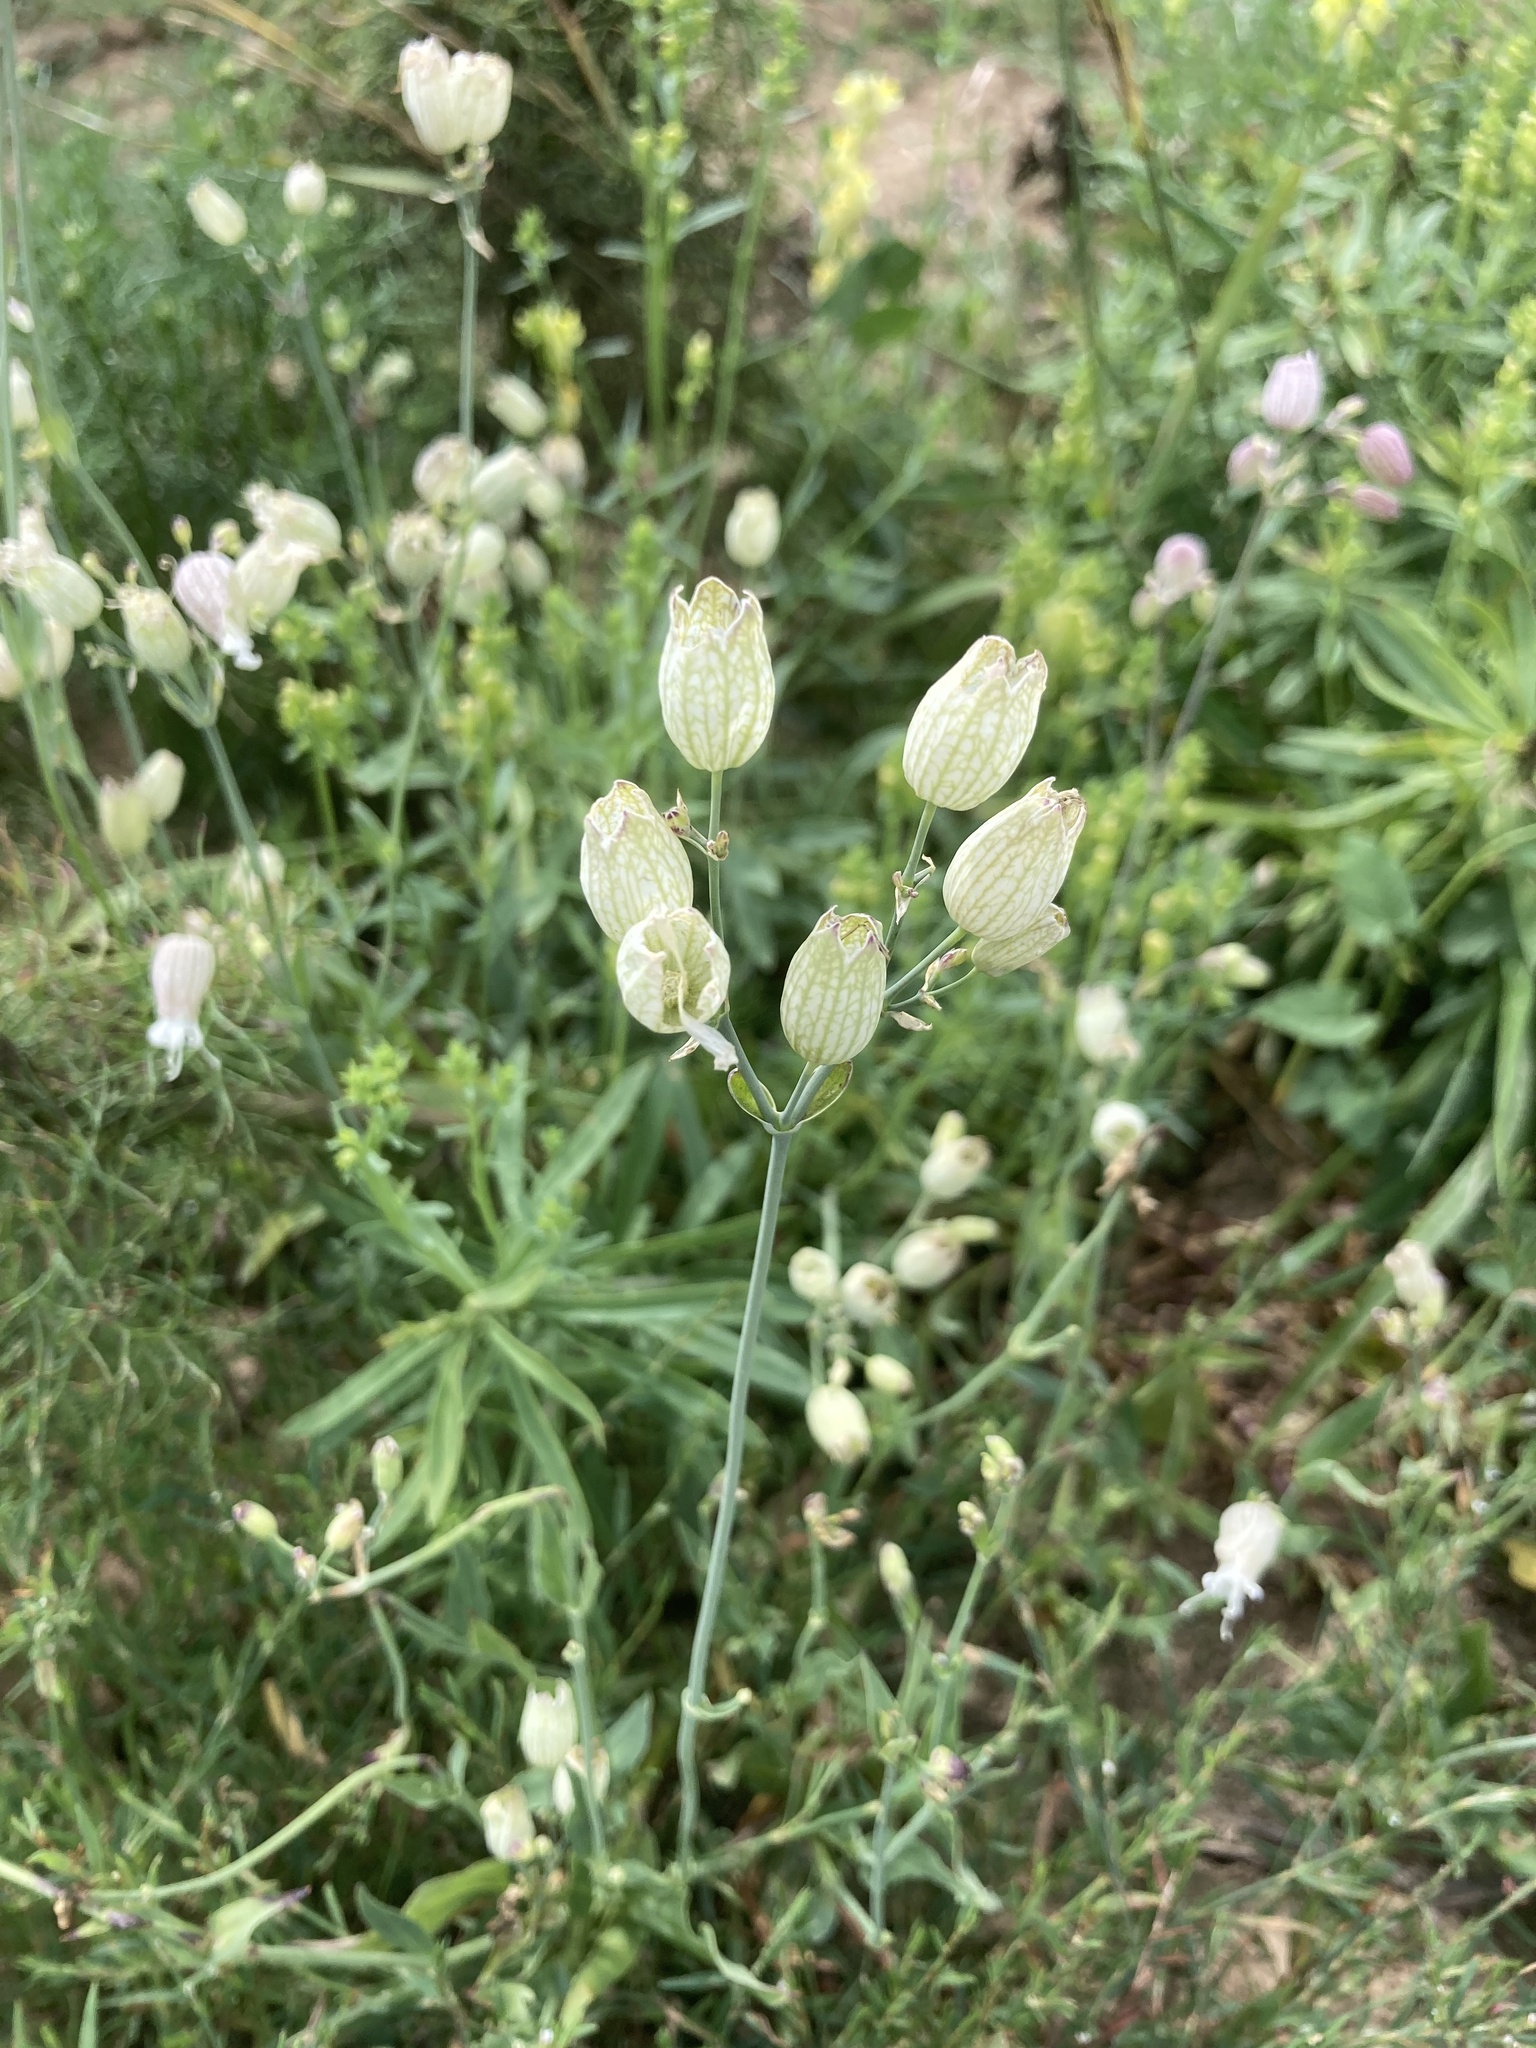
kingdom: Plantae
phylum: Tracheophyta
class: Magnoliopsida
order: Caryophyllales
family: Caryophyllaceae
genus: Silene
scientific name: Silene vulgaris
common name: Bladder campion
